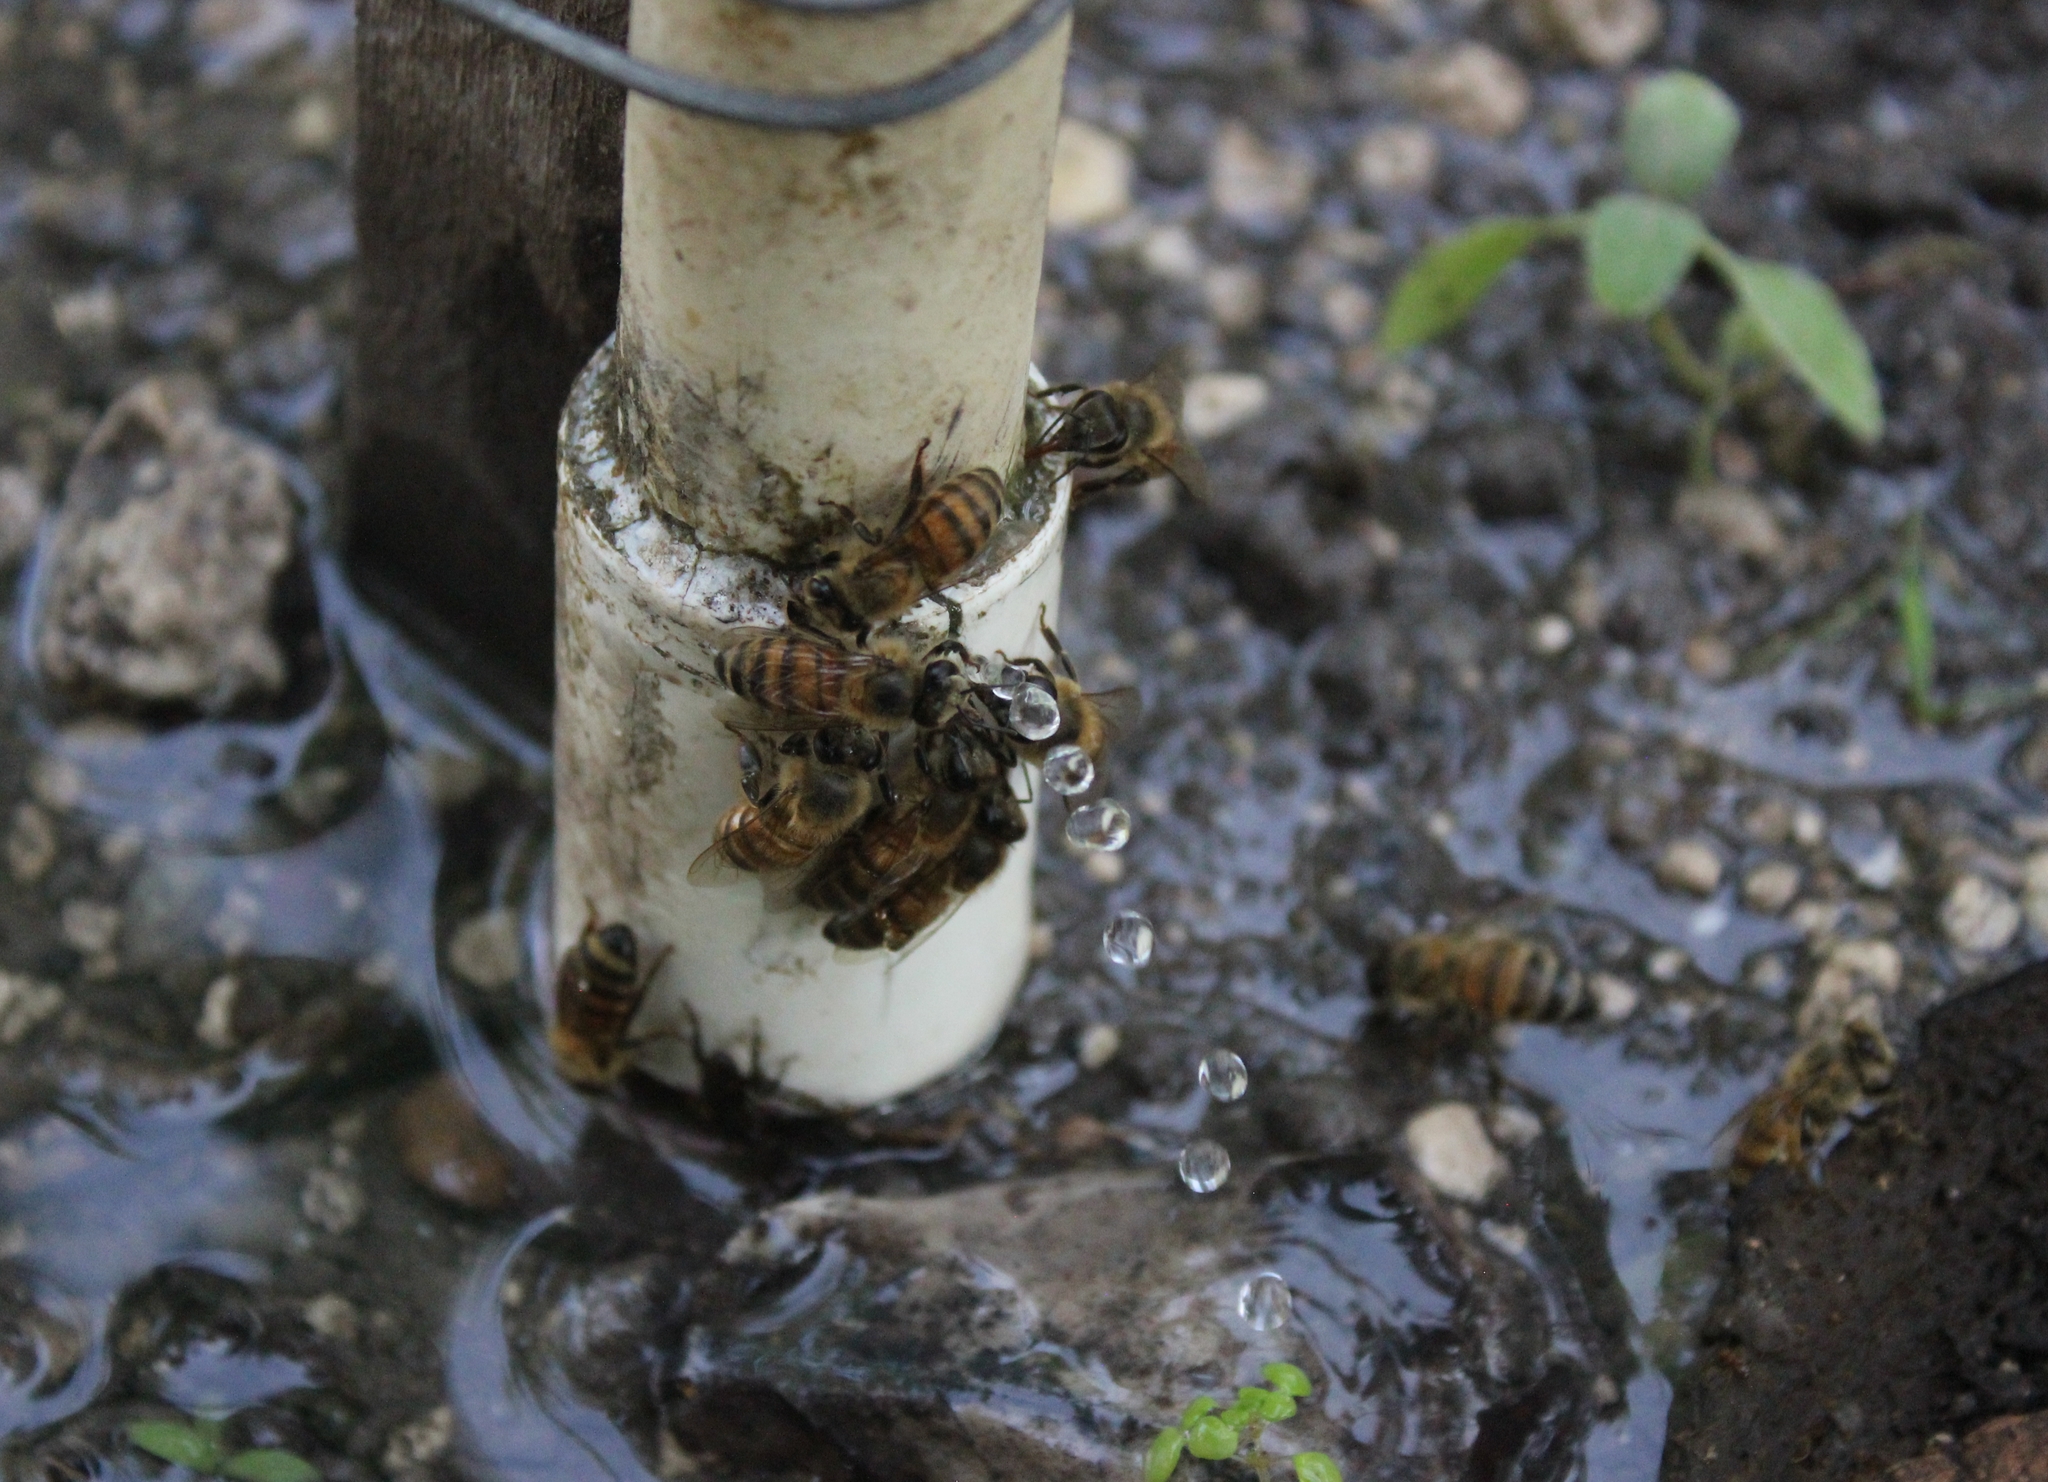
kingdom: Animalia
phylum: Arthropoda
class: Insecta
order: Hymenoptera
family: Apidae
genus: Apis
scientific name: Apis mellifera
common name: Honey bee
